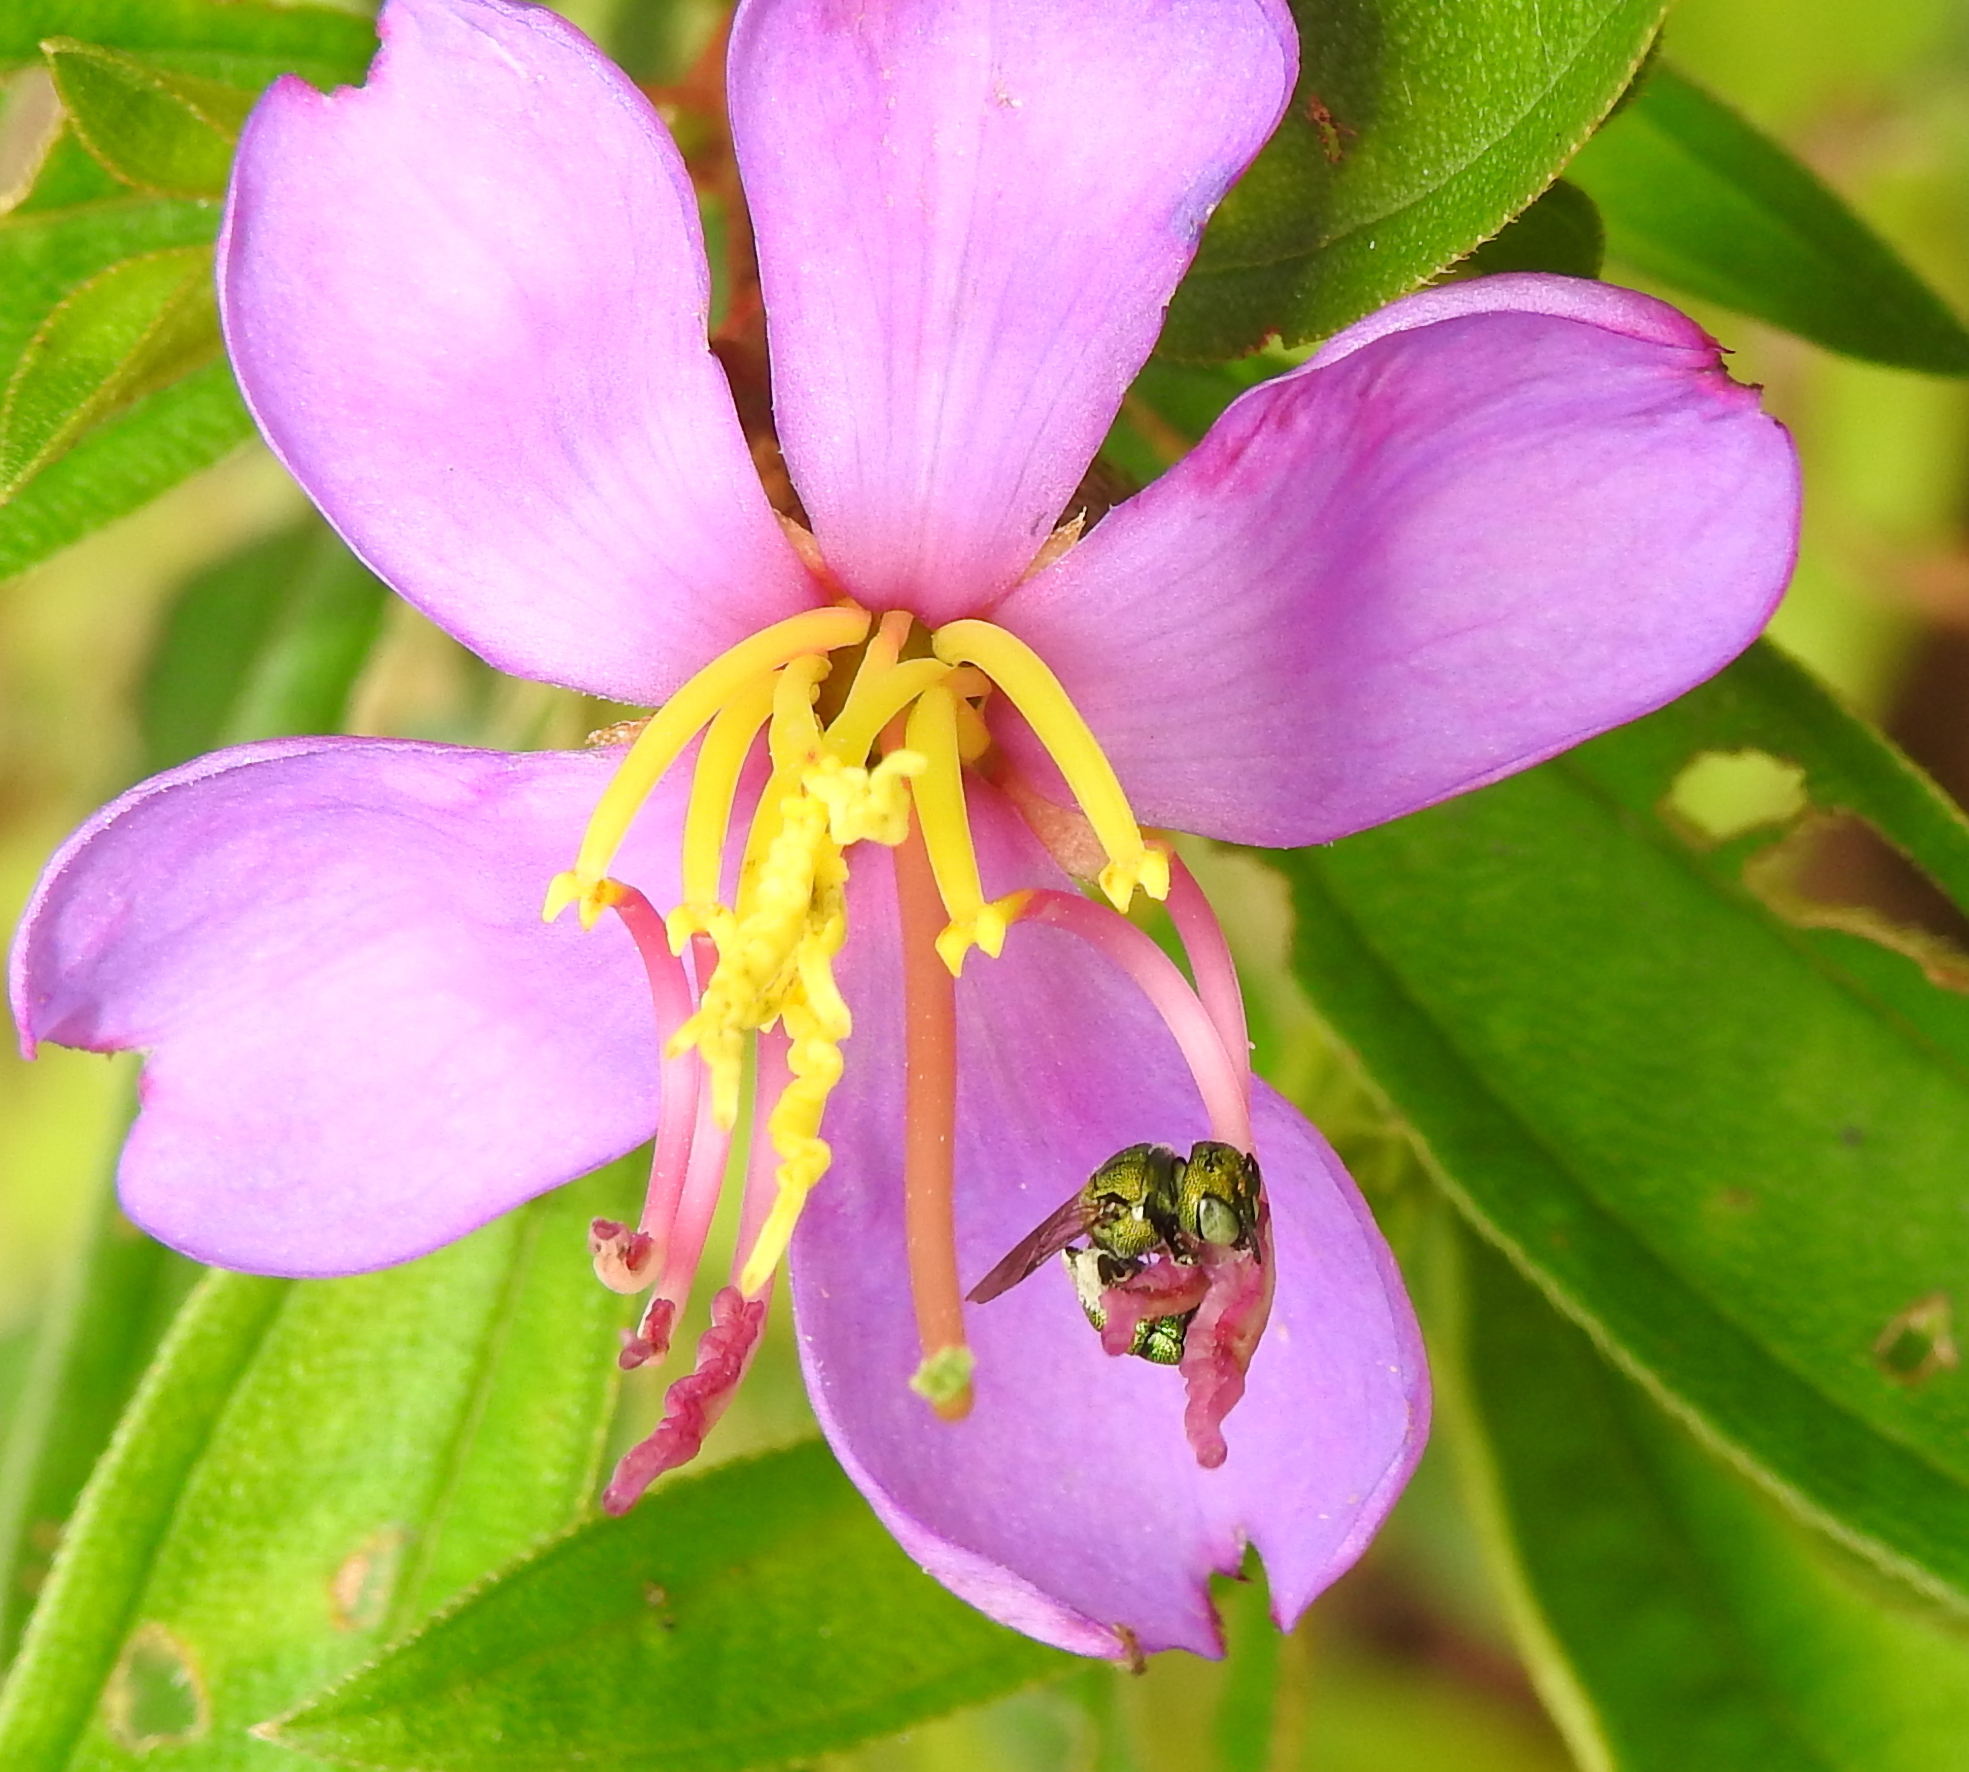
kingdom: Animalia
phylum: Arthropoda
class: Insecta
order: Hymenoptera
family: Apidae
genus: Ceratina
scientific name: Ceratina smaragdula
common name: Small carpenter bee
